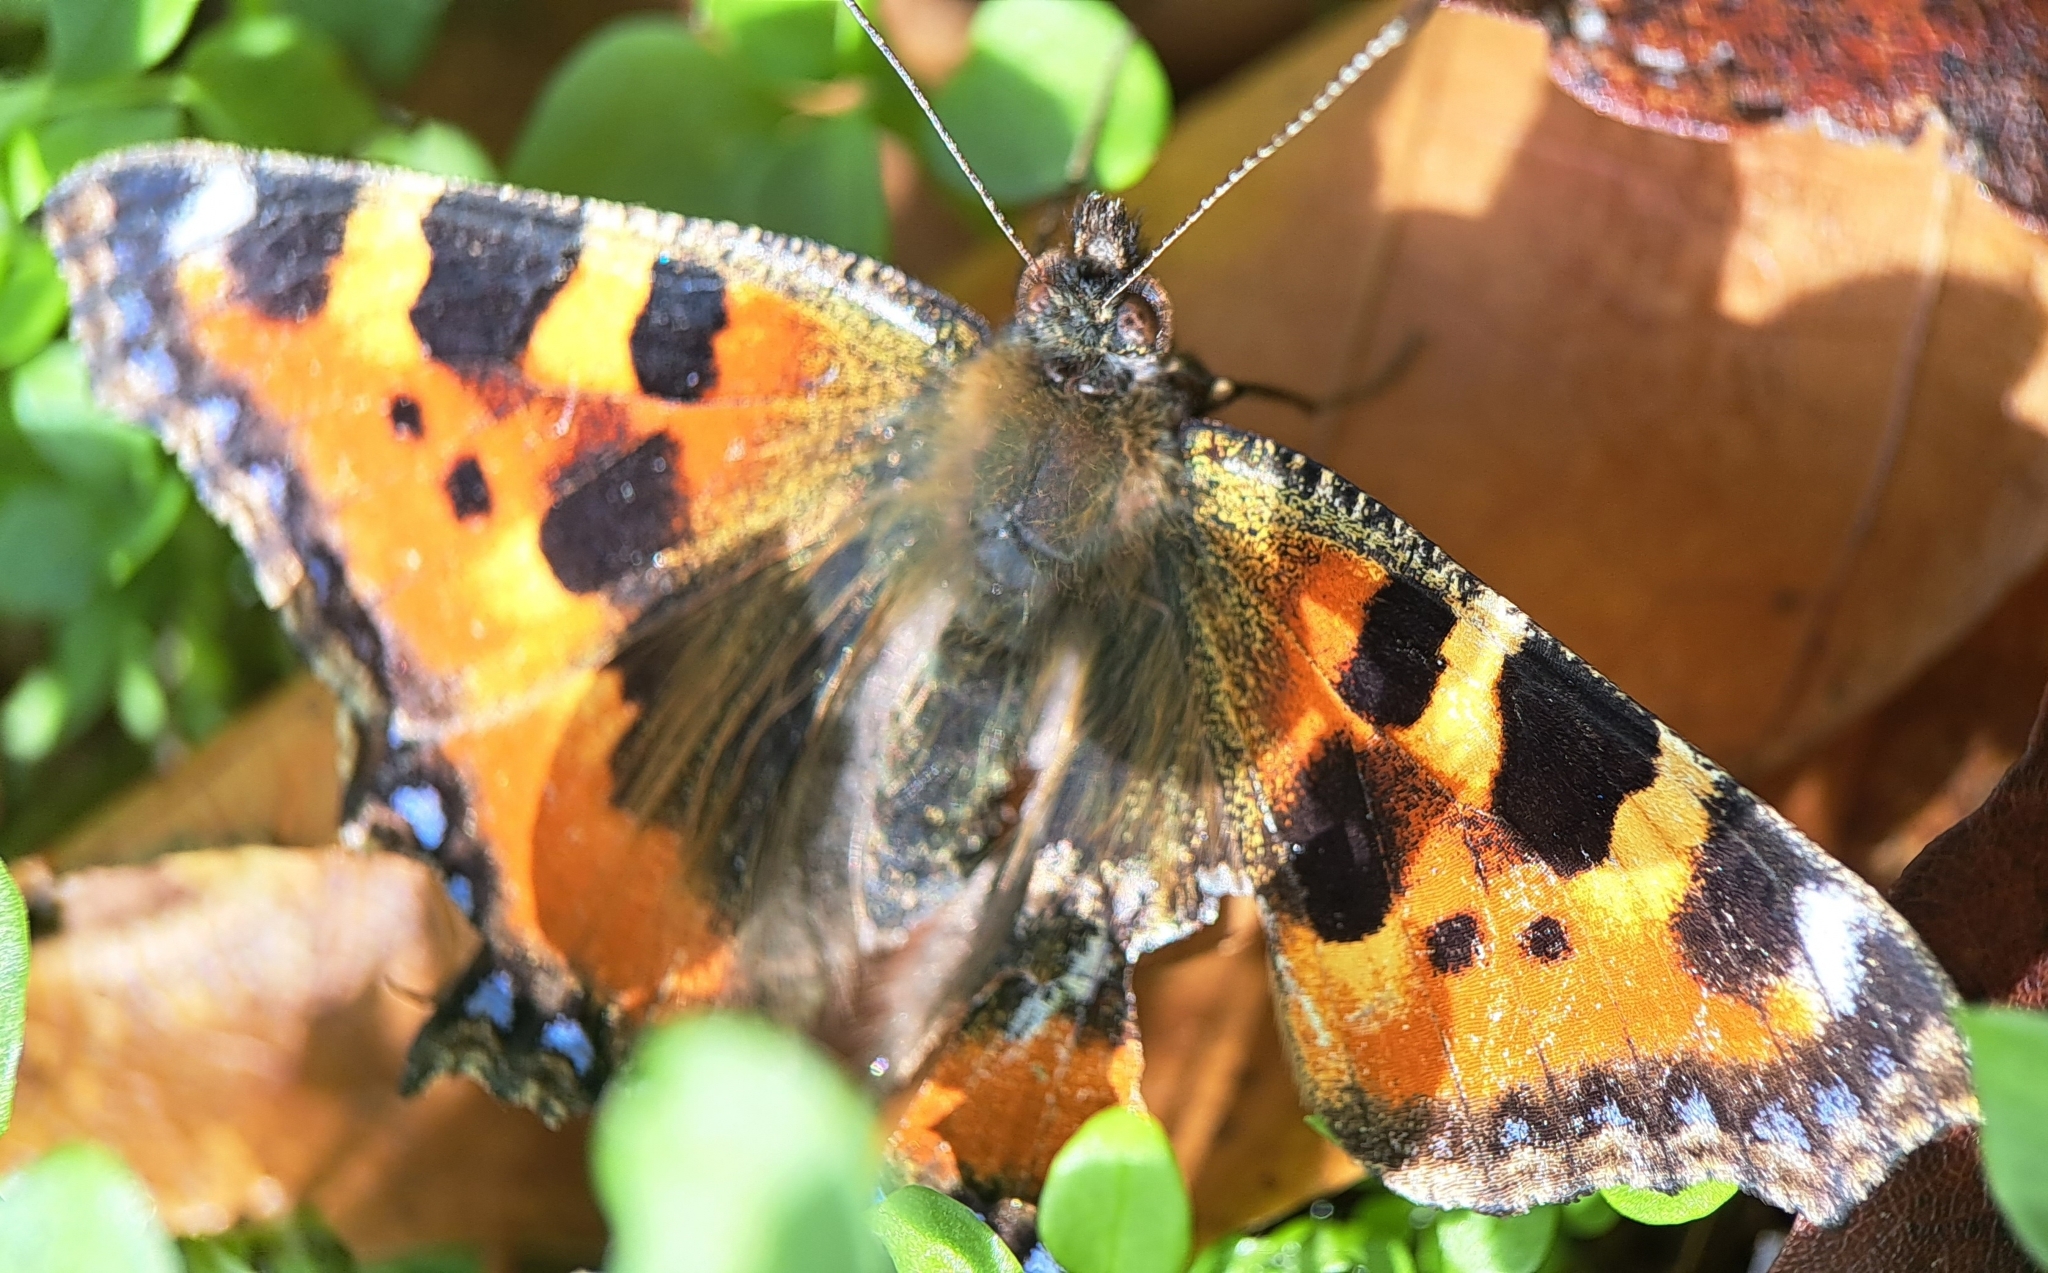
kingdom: Animalia
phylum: Arthropoda
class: Insecta
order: Lepidoptera
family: Nymphalidae
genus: Aglais
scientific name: Aglais urticae
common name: Small tortoiseshell
